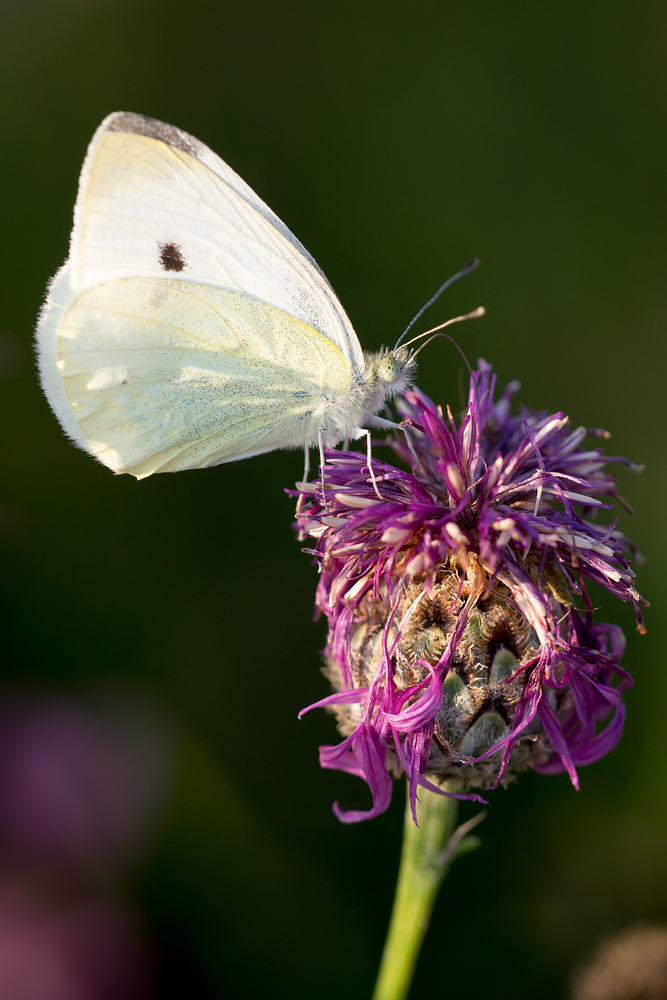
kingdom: Animalia
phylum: Arthropoda
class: Insecta
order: Lepidoptera
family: Pieridae
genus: Pieris
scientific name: Pieris rapae
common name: Small white
